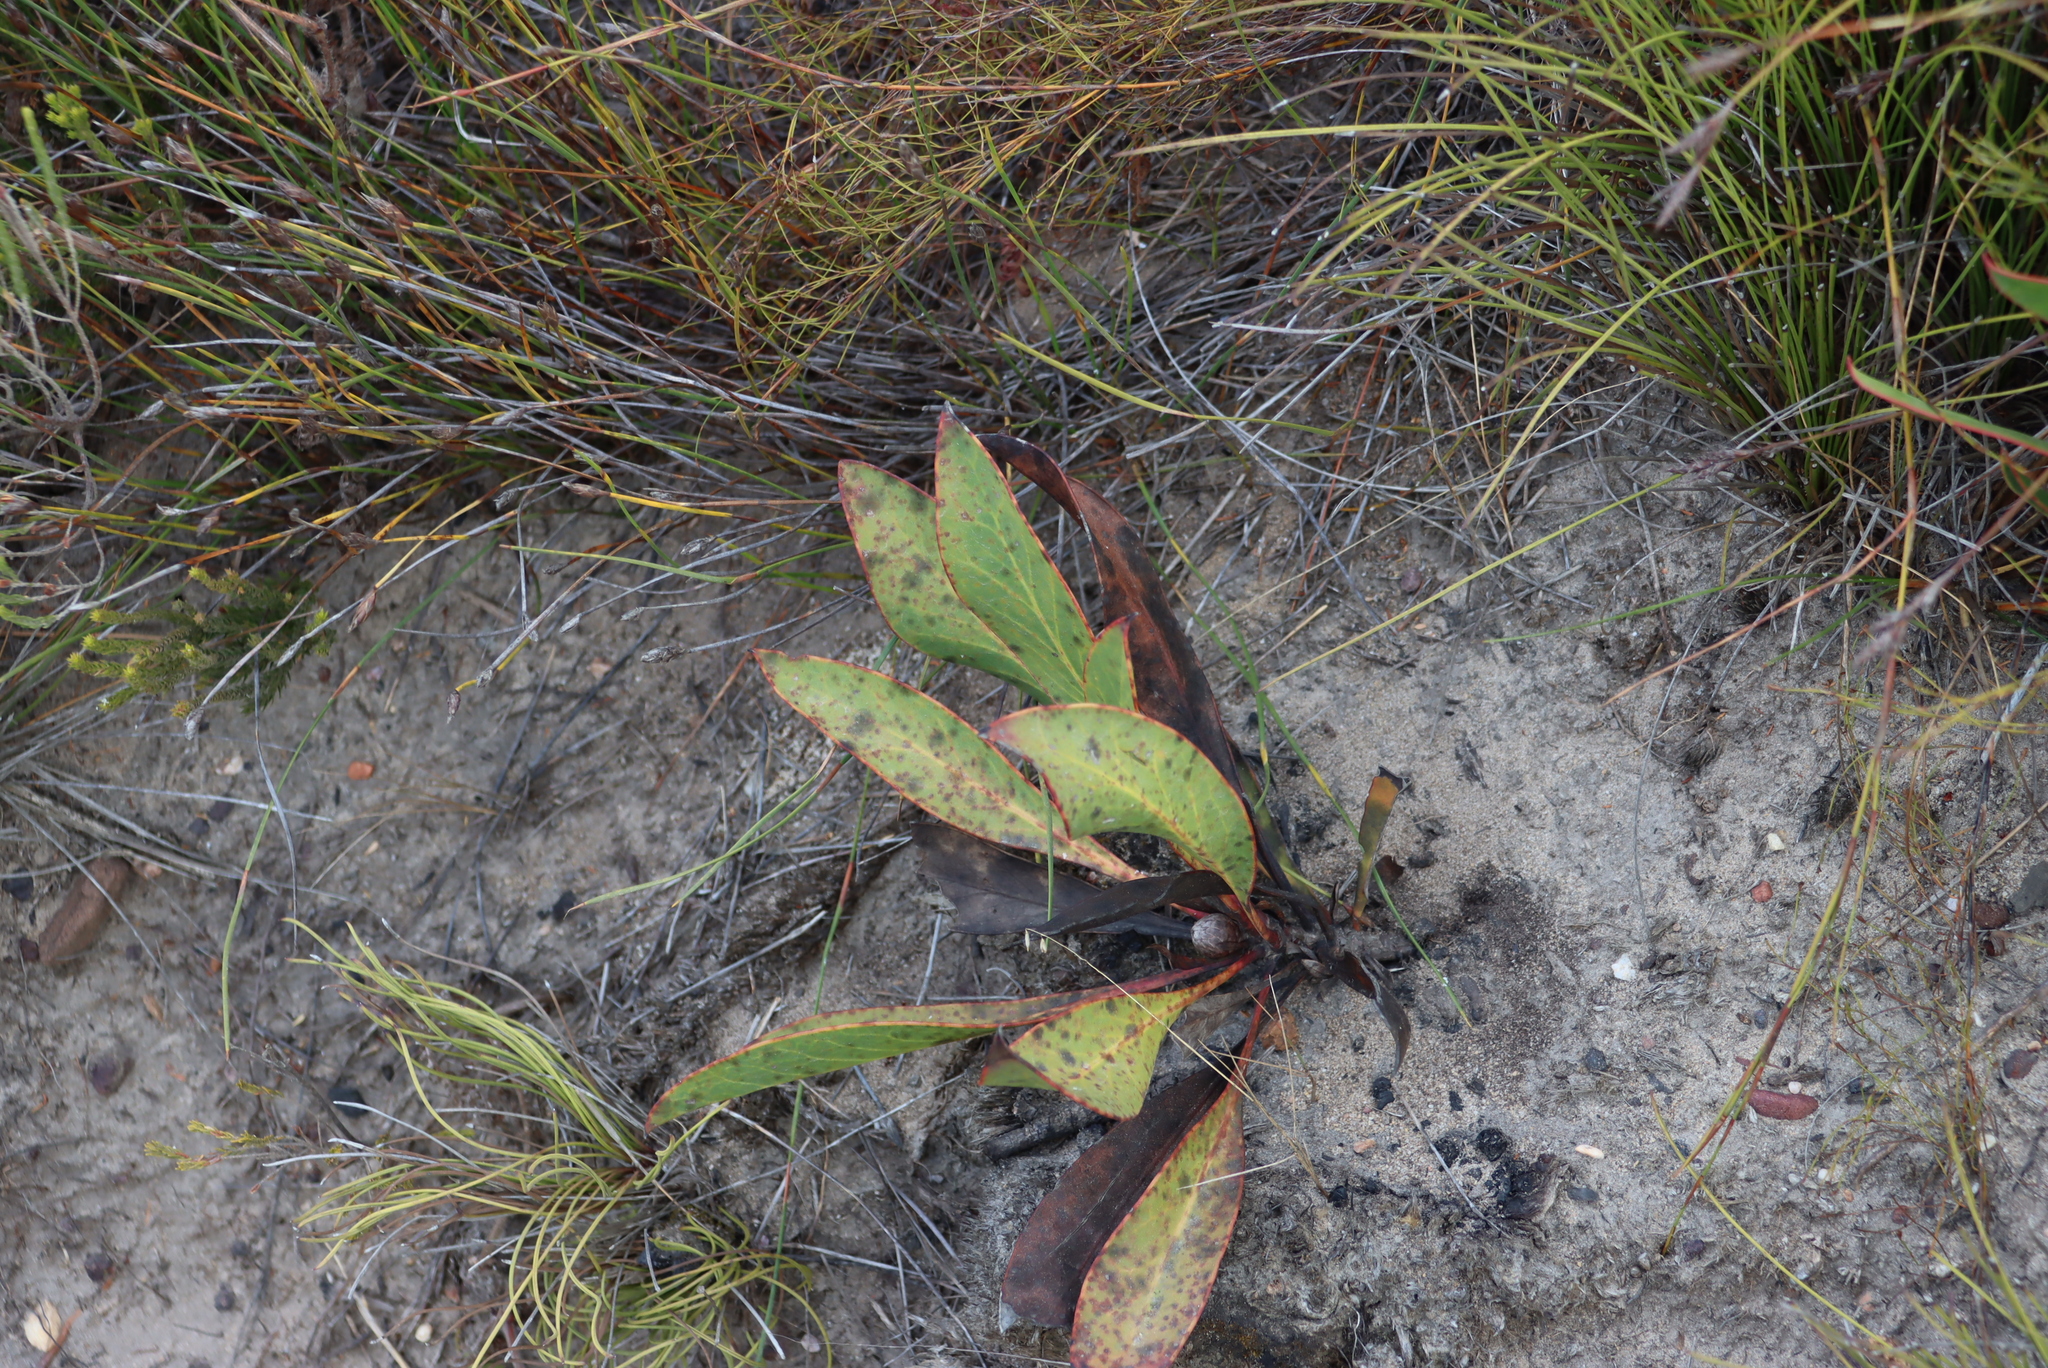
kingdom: Plantae
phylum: Tracheophyta
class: Magnoliopsida
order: Proteales
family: Proteaceae
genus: Protea
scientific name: Protea acaulos
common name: Common ground sugarbush
